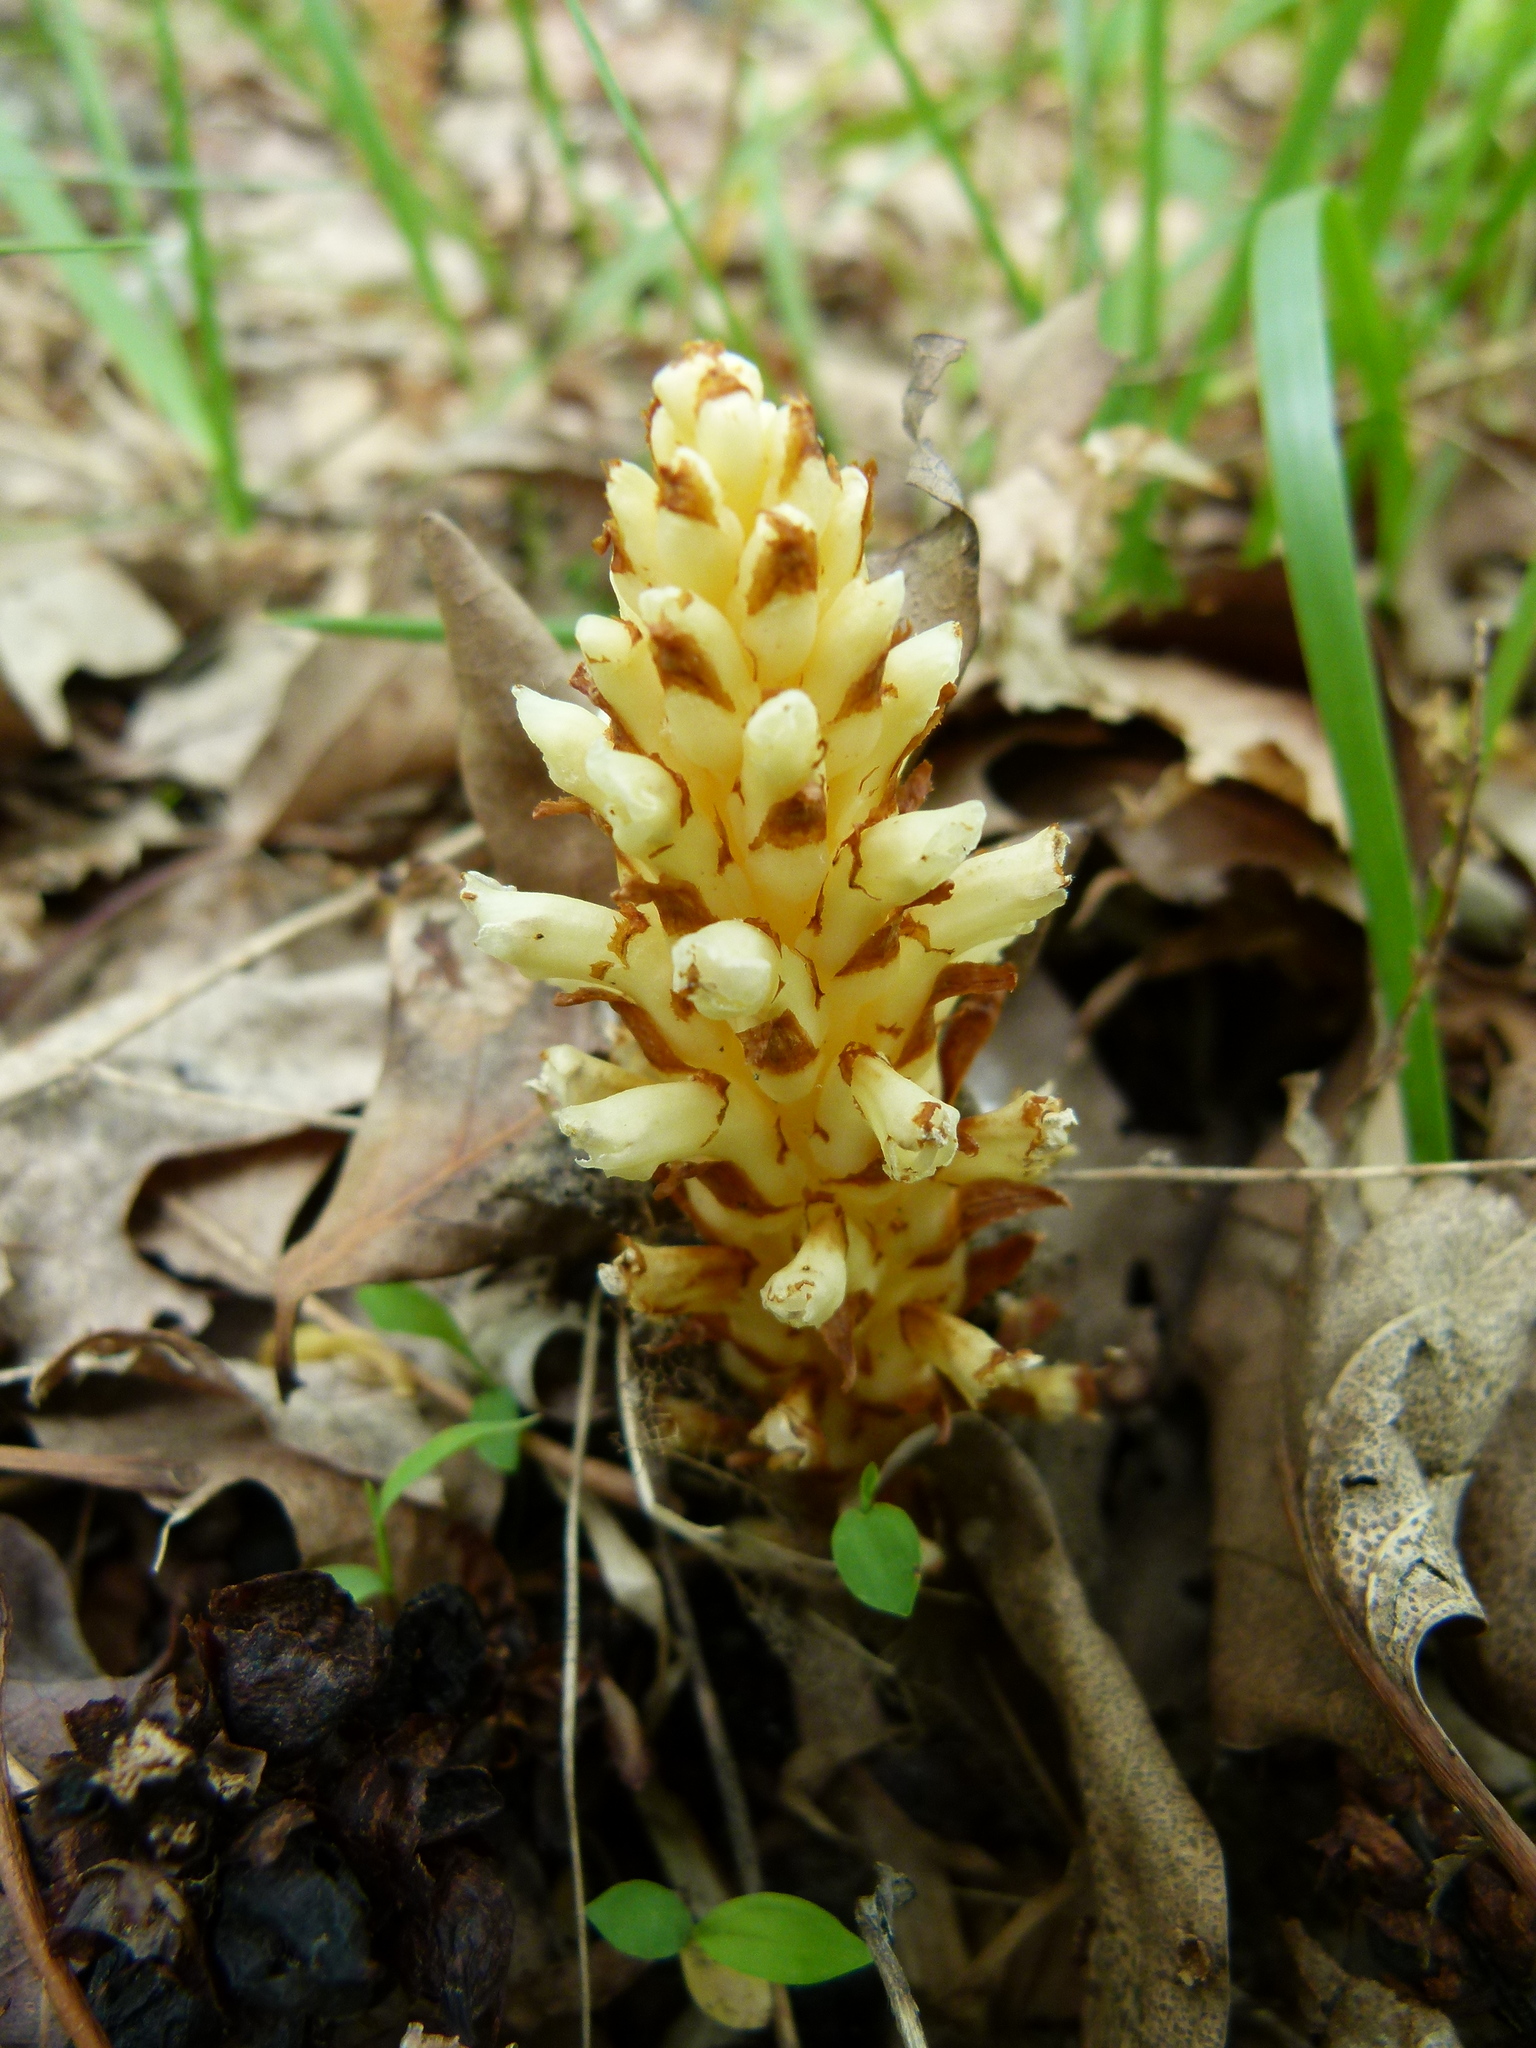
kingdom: Plantae
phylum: Tracheophyta
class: Magnoliopsida
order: Lamiales
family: Orobanchaceae
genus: Conopholis
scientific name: Conopholis americana
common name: American cancer-root
